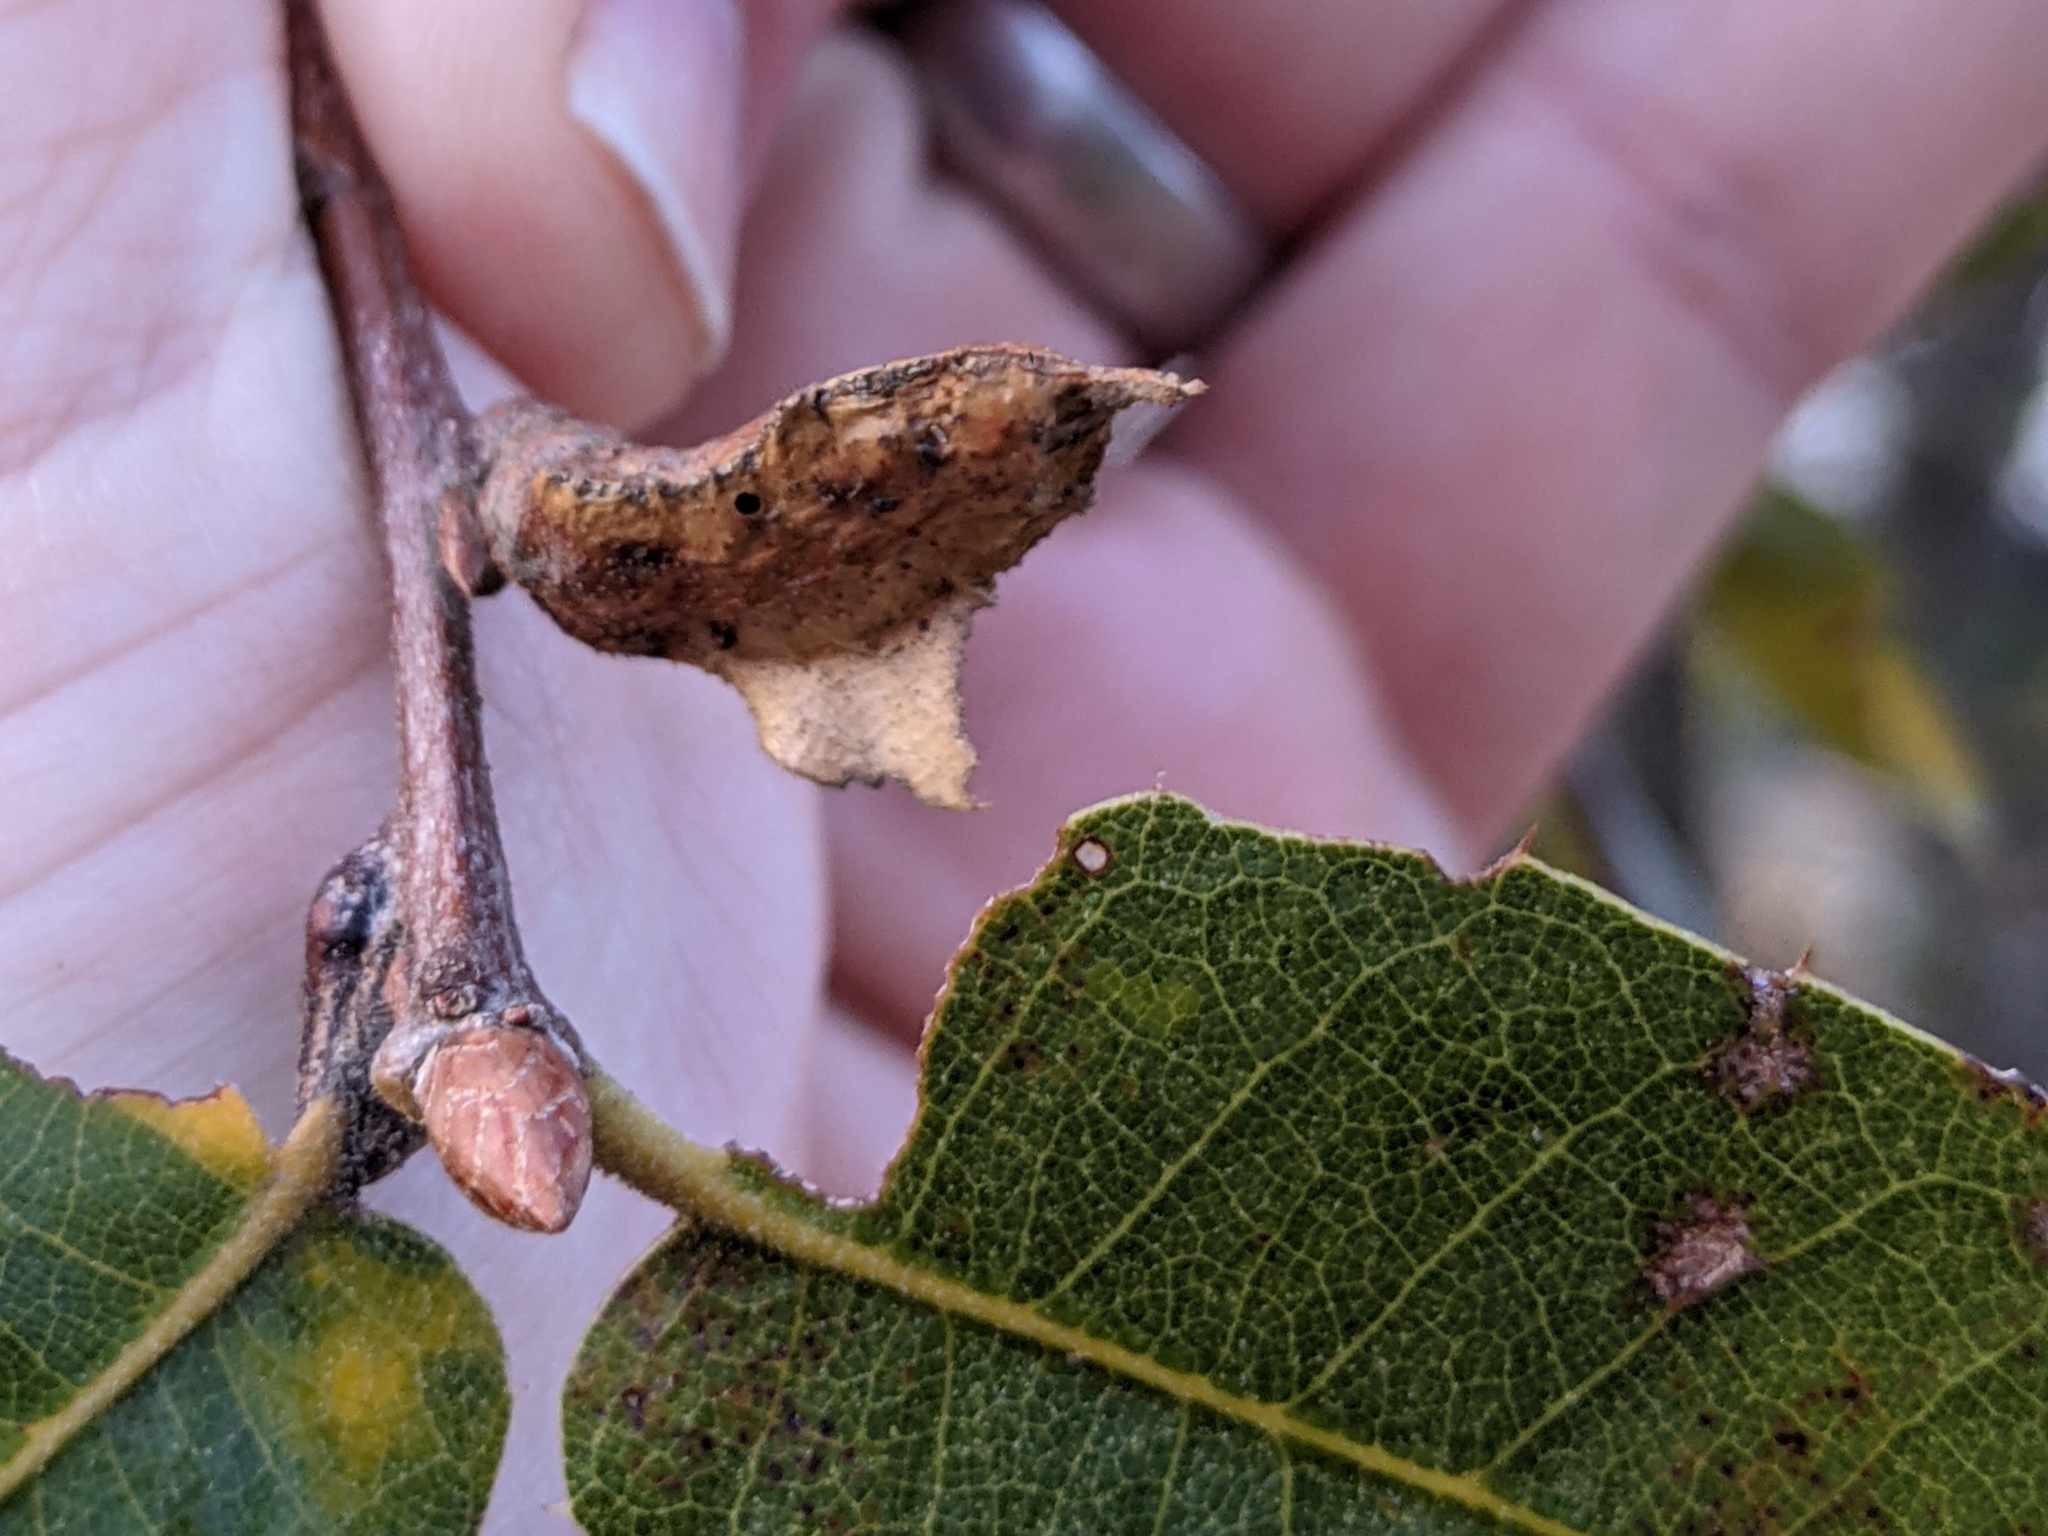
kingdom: Animalia
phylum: Arthropoda
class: Insecta
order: Hymenoptera
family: Cynipidae
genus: Melikaiella
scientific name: Melikaiella
